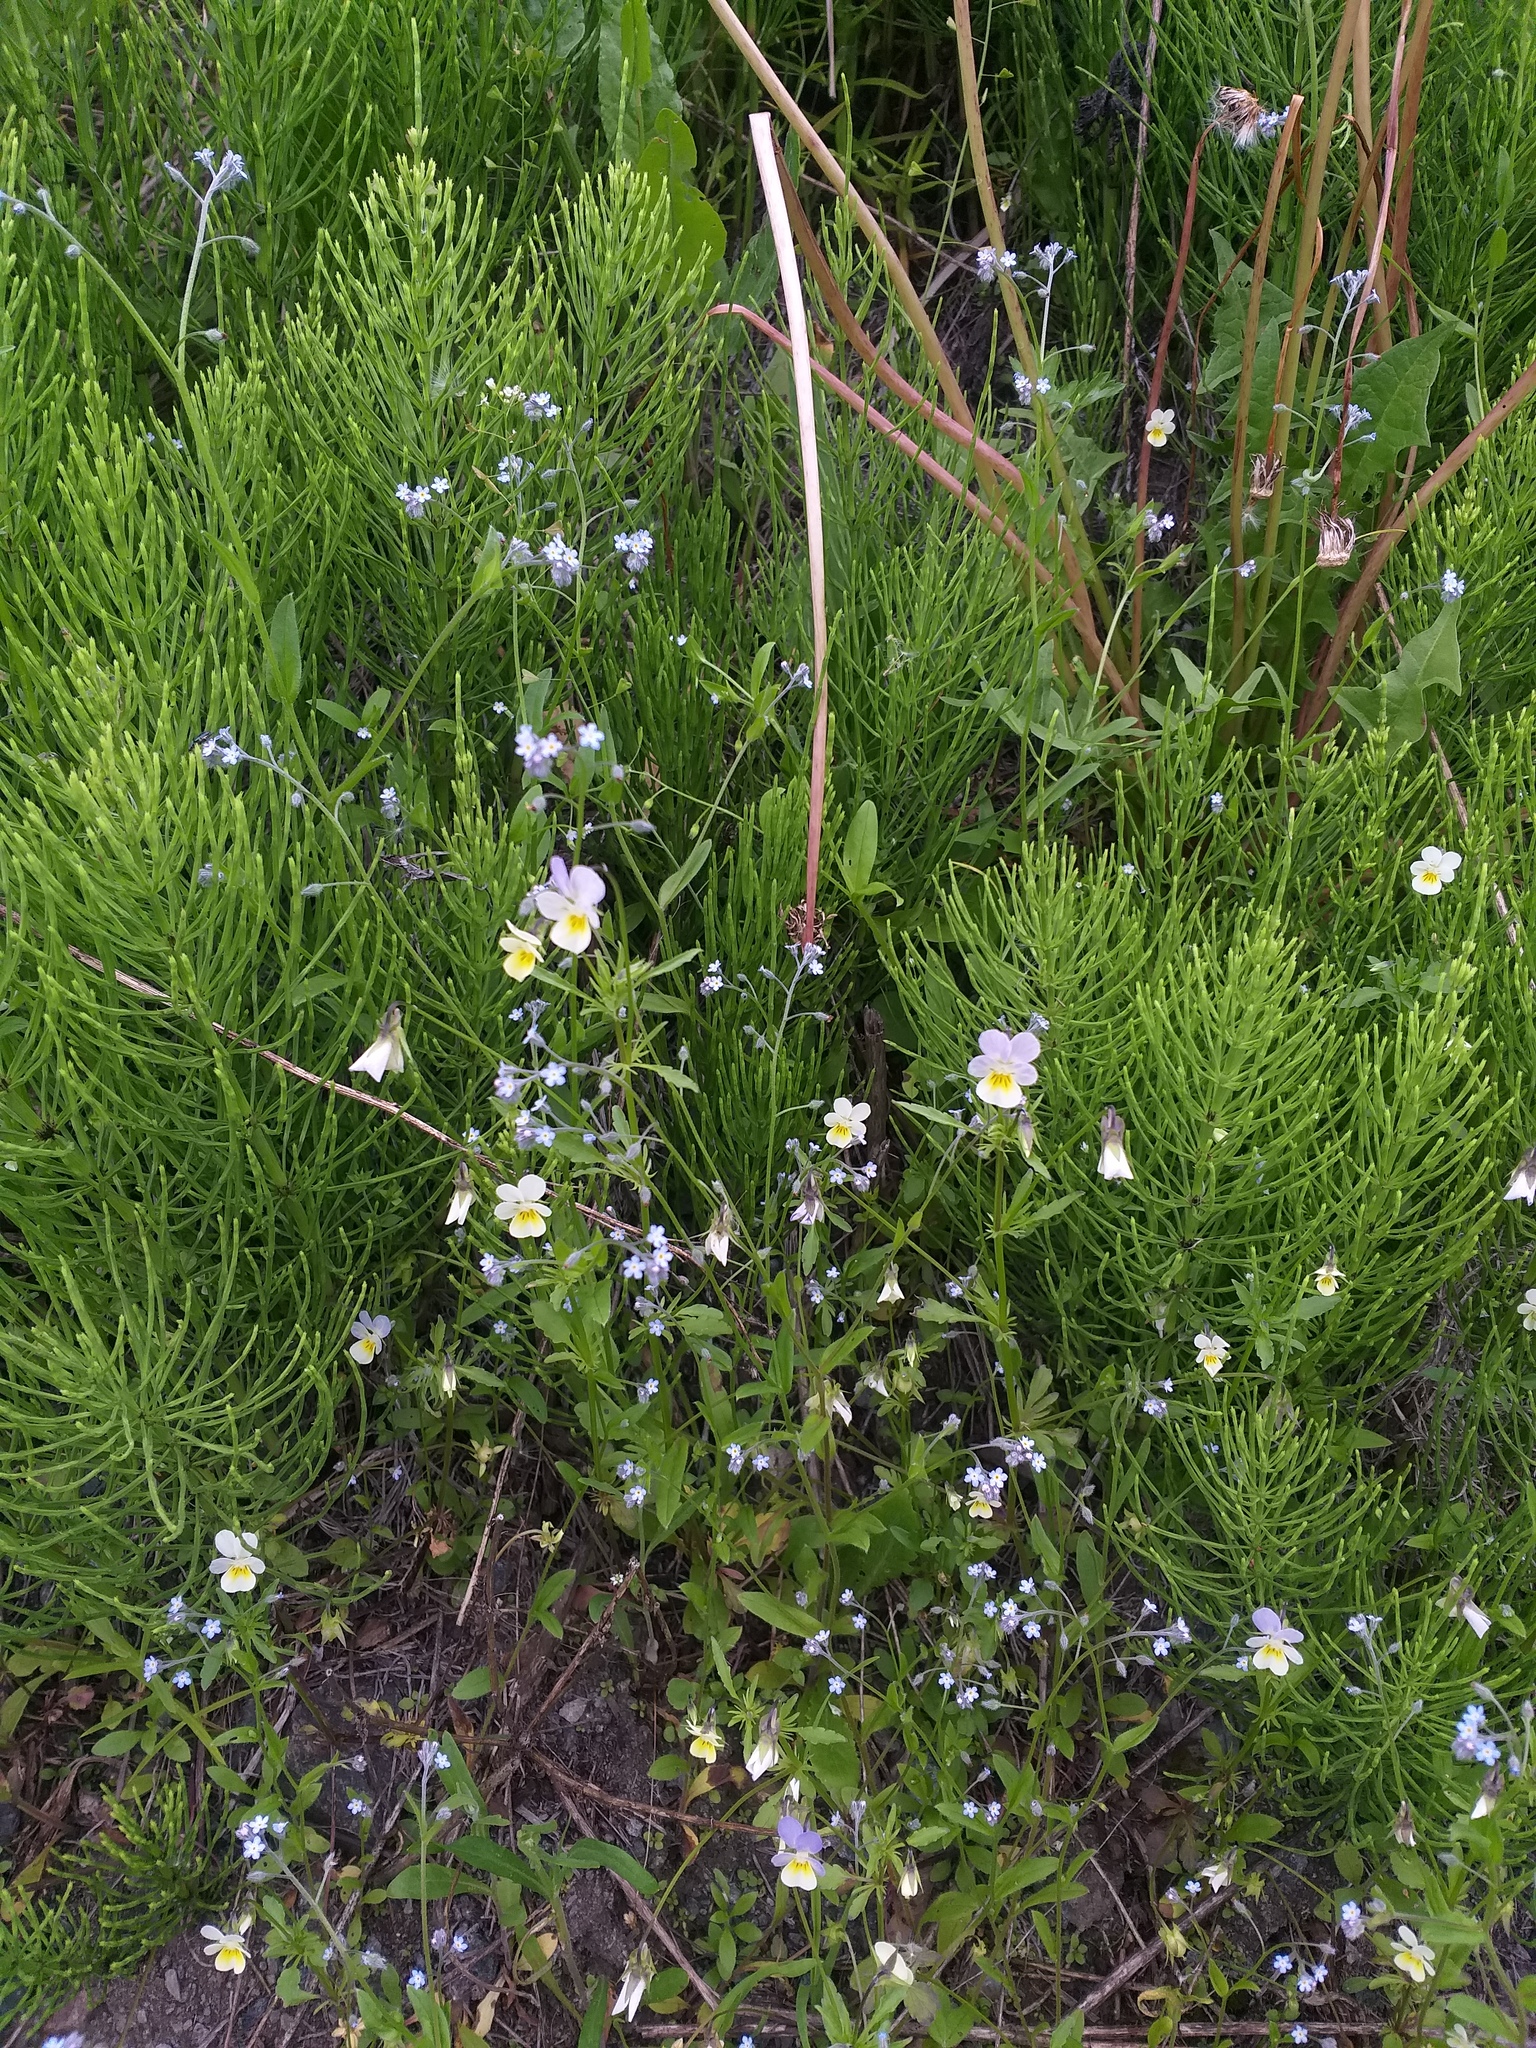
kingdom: Plantae
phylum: Tracheophyta
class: Magnoliopsida
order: Malpighiales
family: Violaceae
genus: Viola
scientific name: Viola contempta
